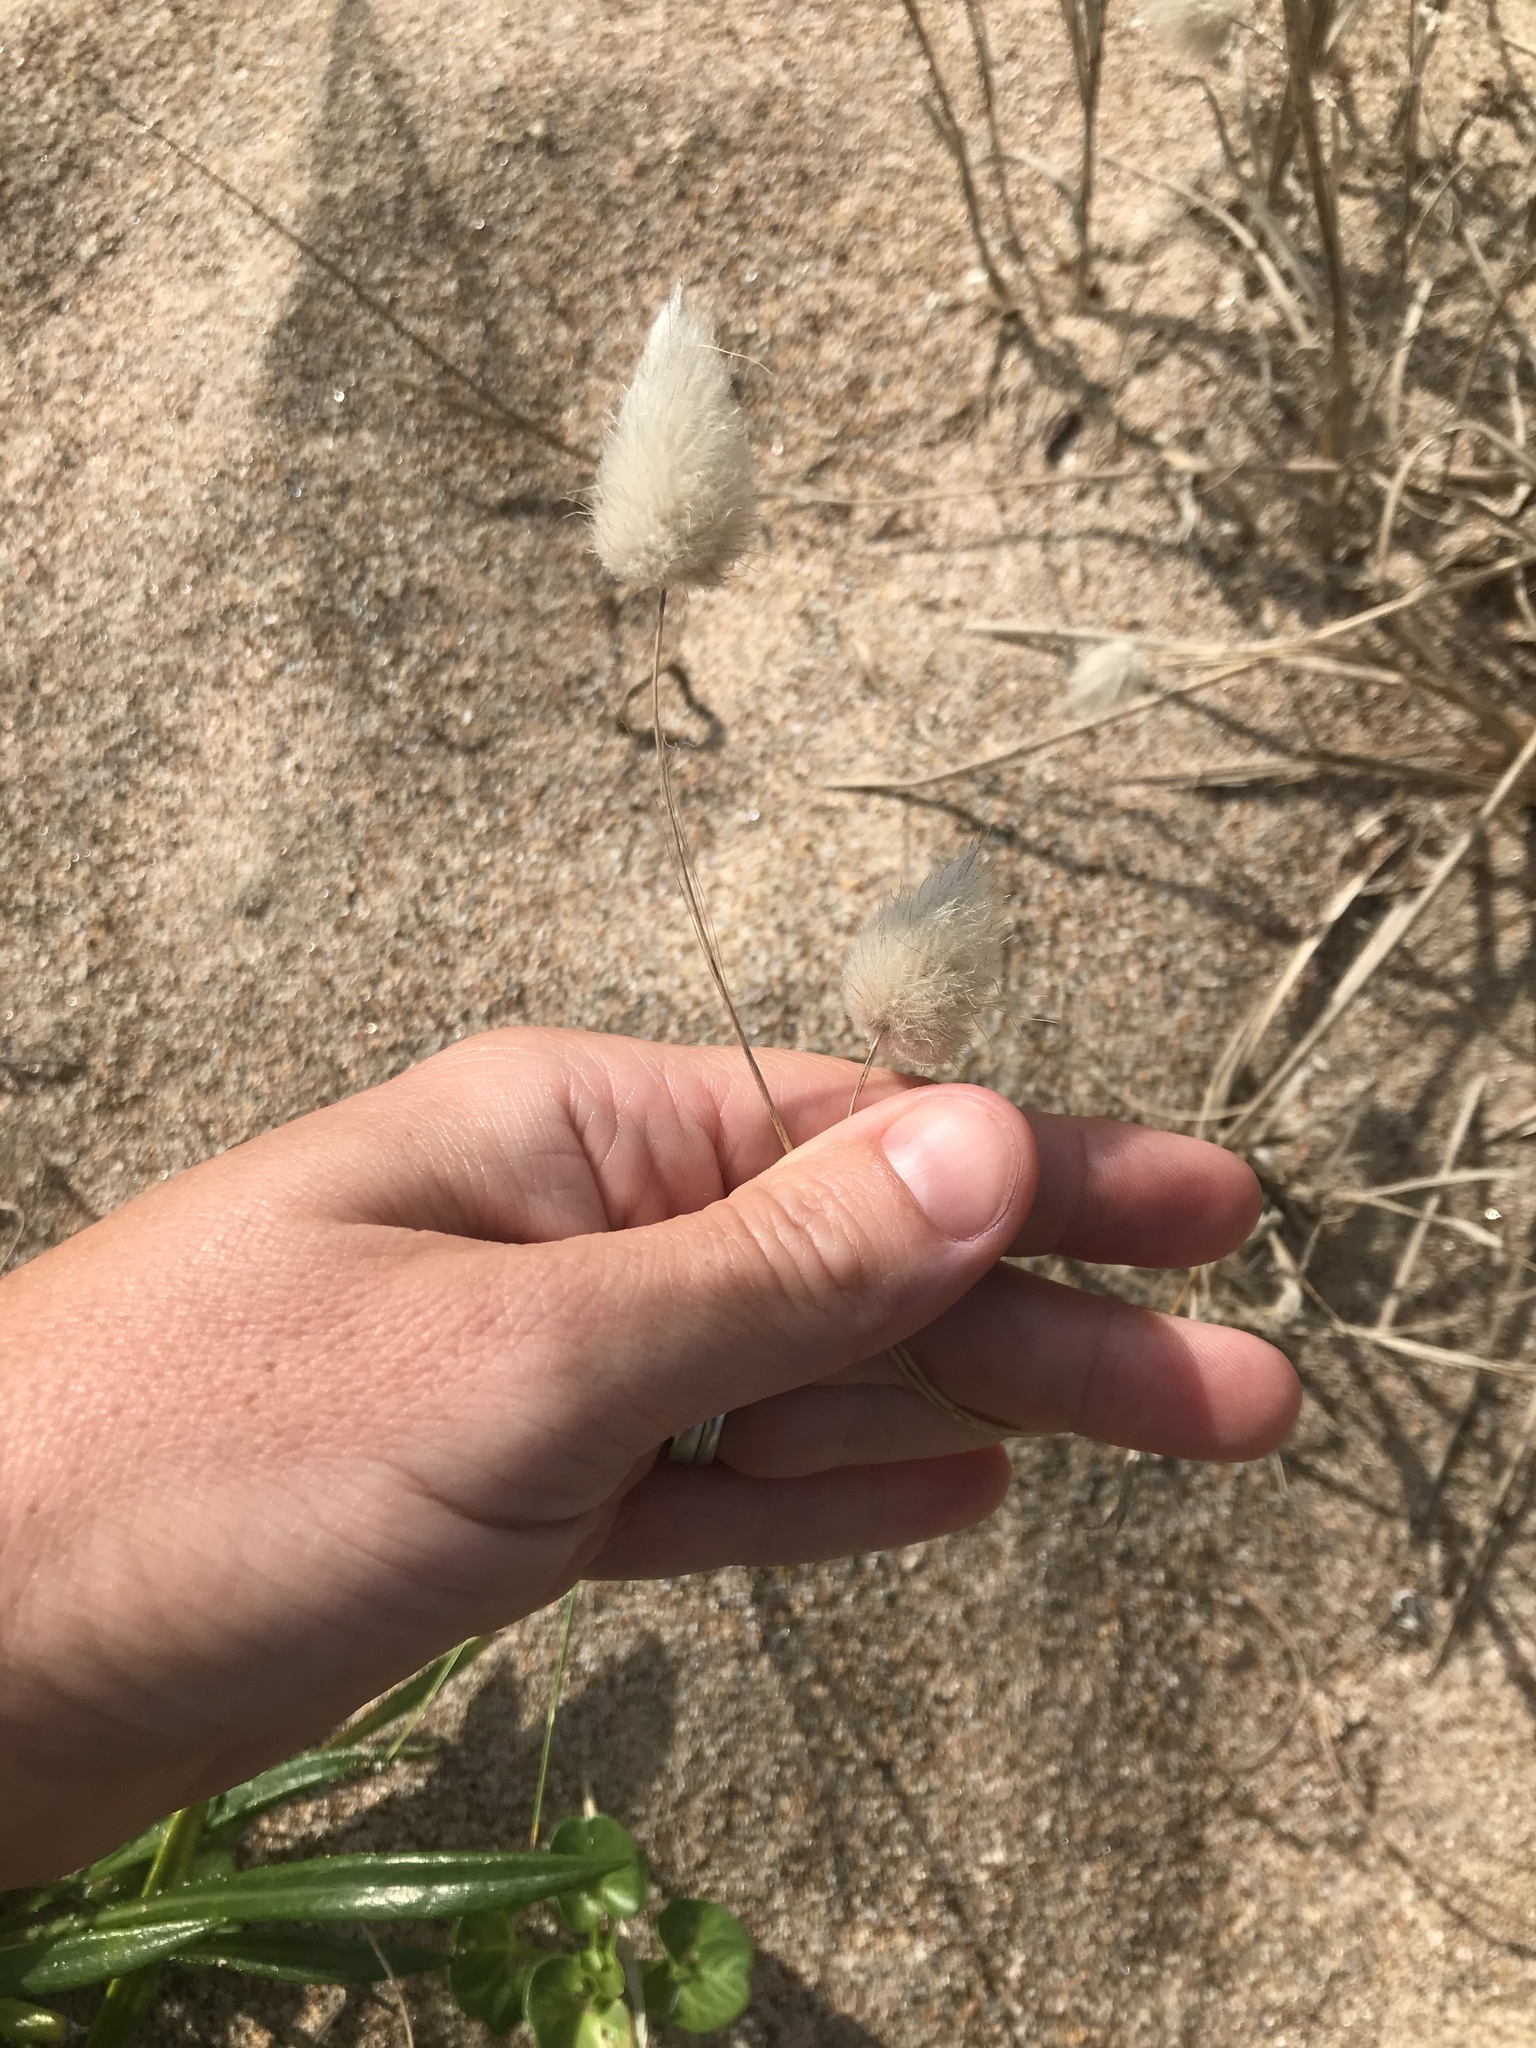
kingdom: Plantae
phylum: Tracheophyta
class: Liliopsida
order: Poales
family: Poaceae
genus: Lagurus
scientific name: Lagurus ovatus
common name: Hare's-tail
